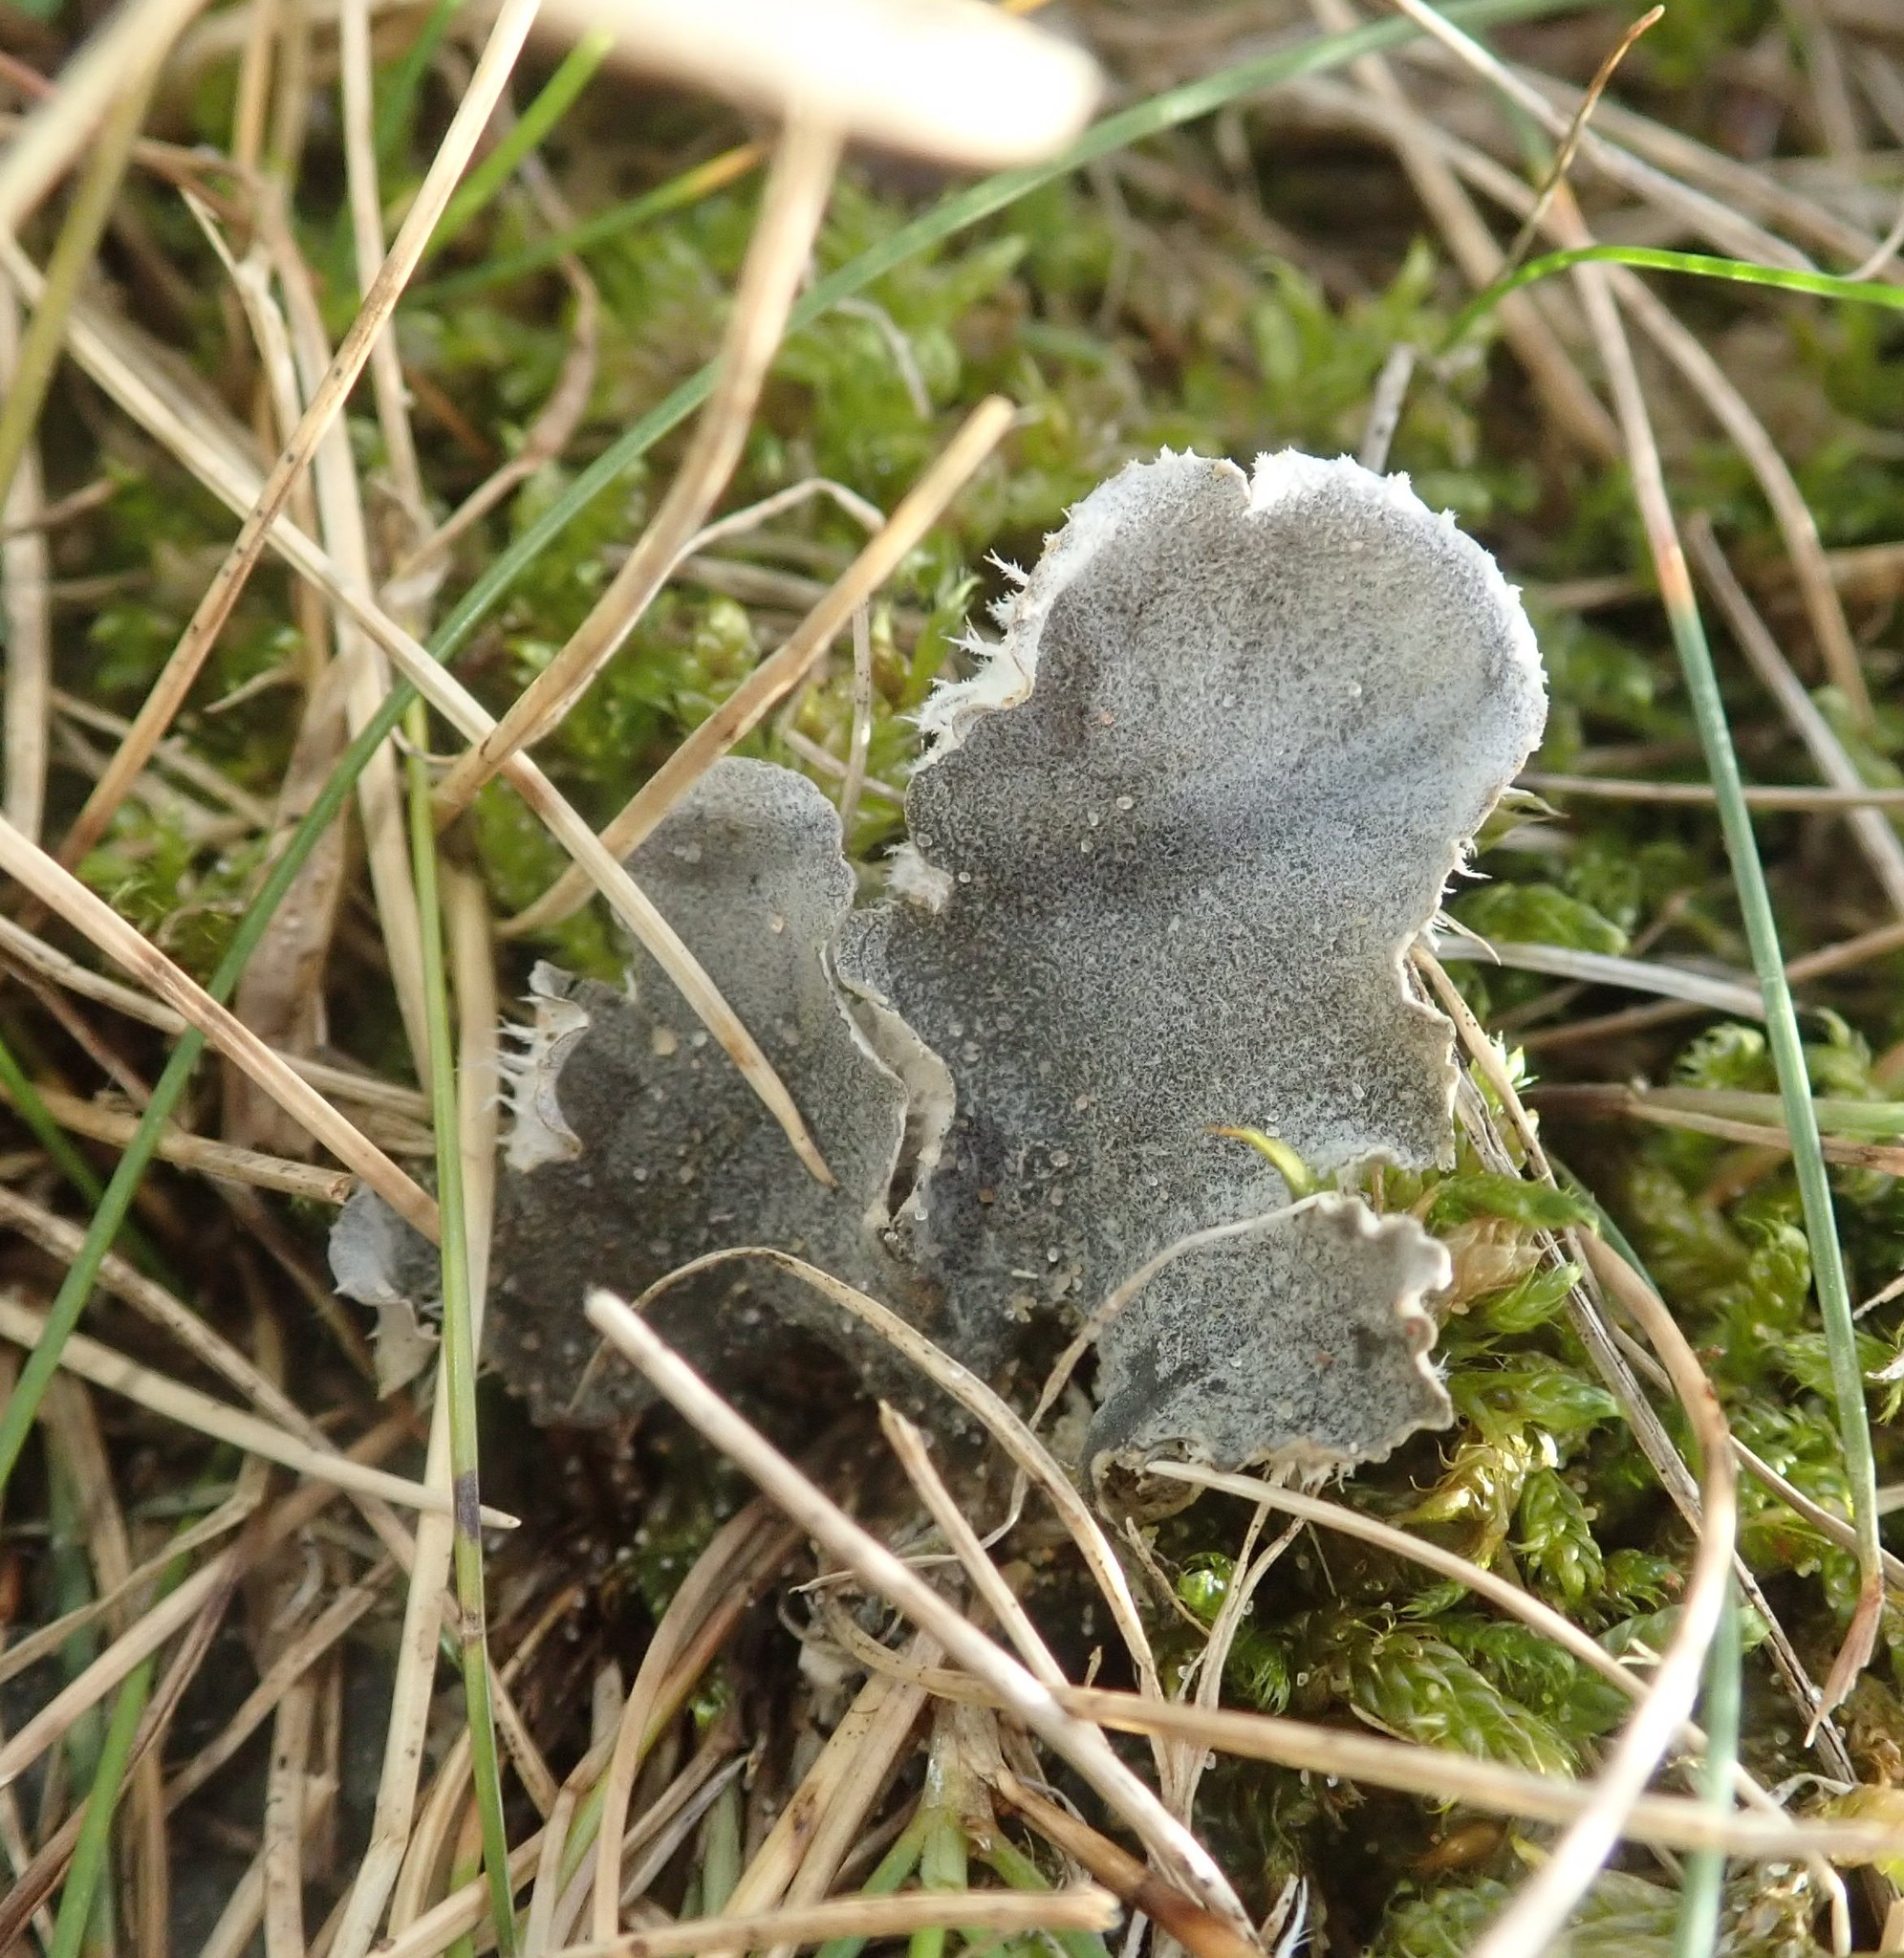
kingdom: Fungi
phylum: Ascomycota
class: Lecanoromycetes
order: Peltigerales
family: Peltigeraceae
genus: Peltigera
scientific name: Peltigera canina
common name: Dog pelt lichen
